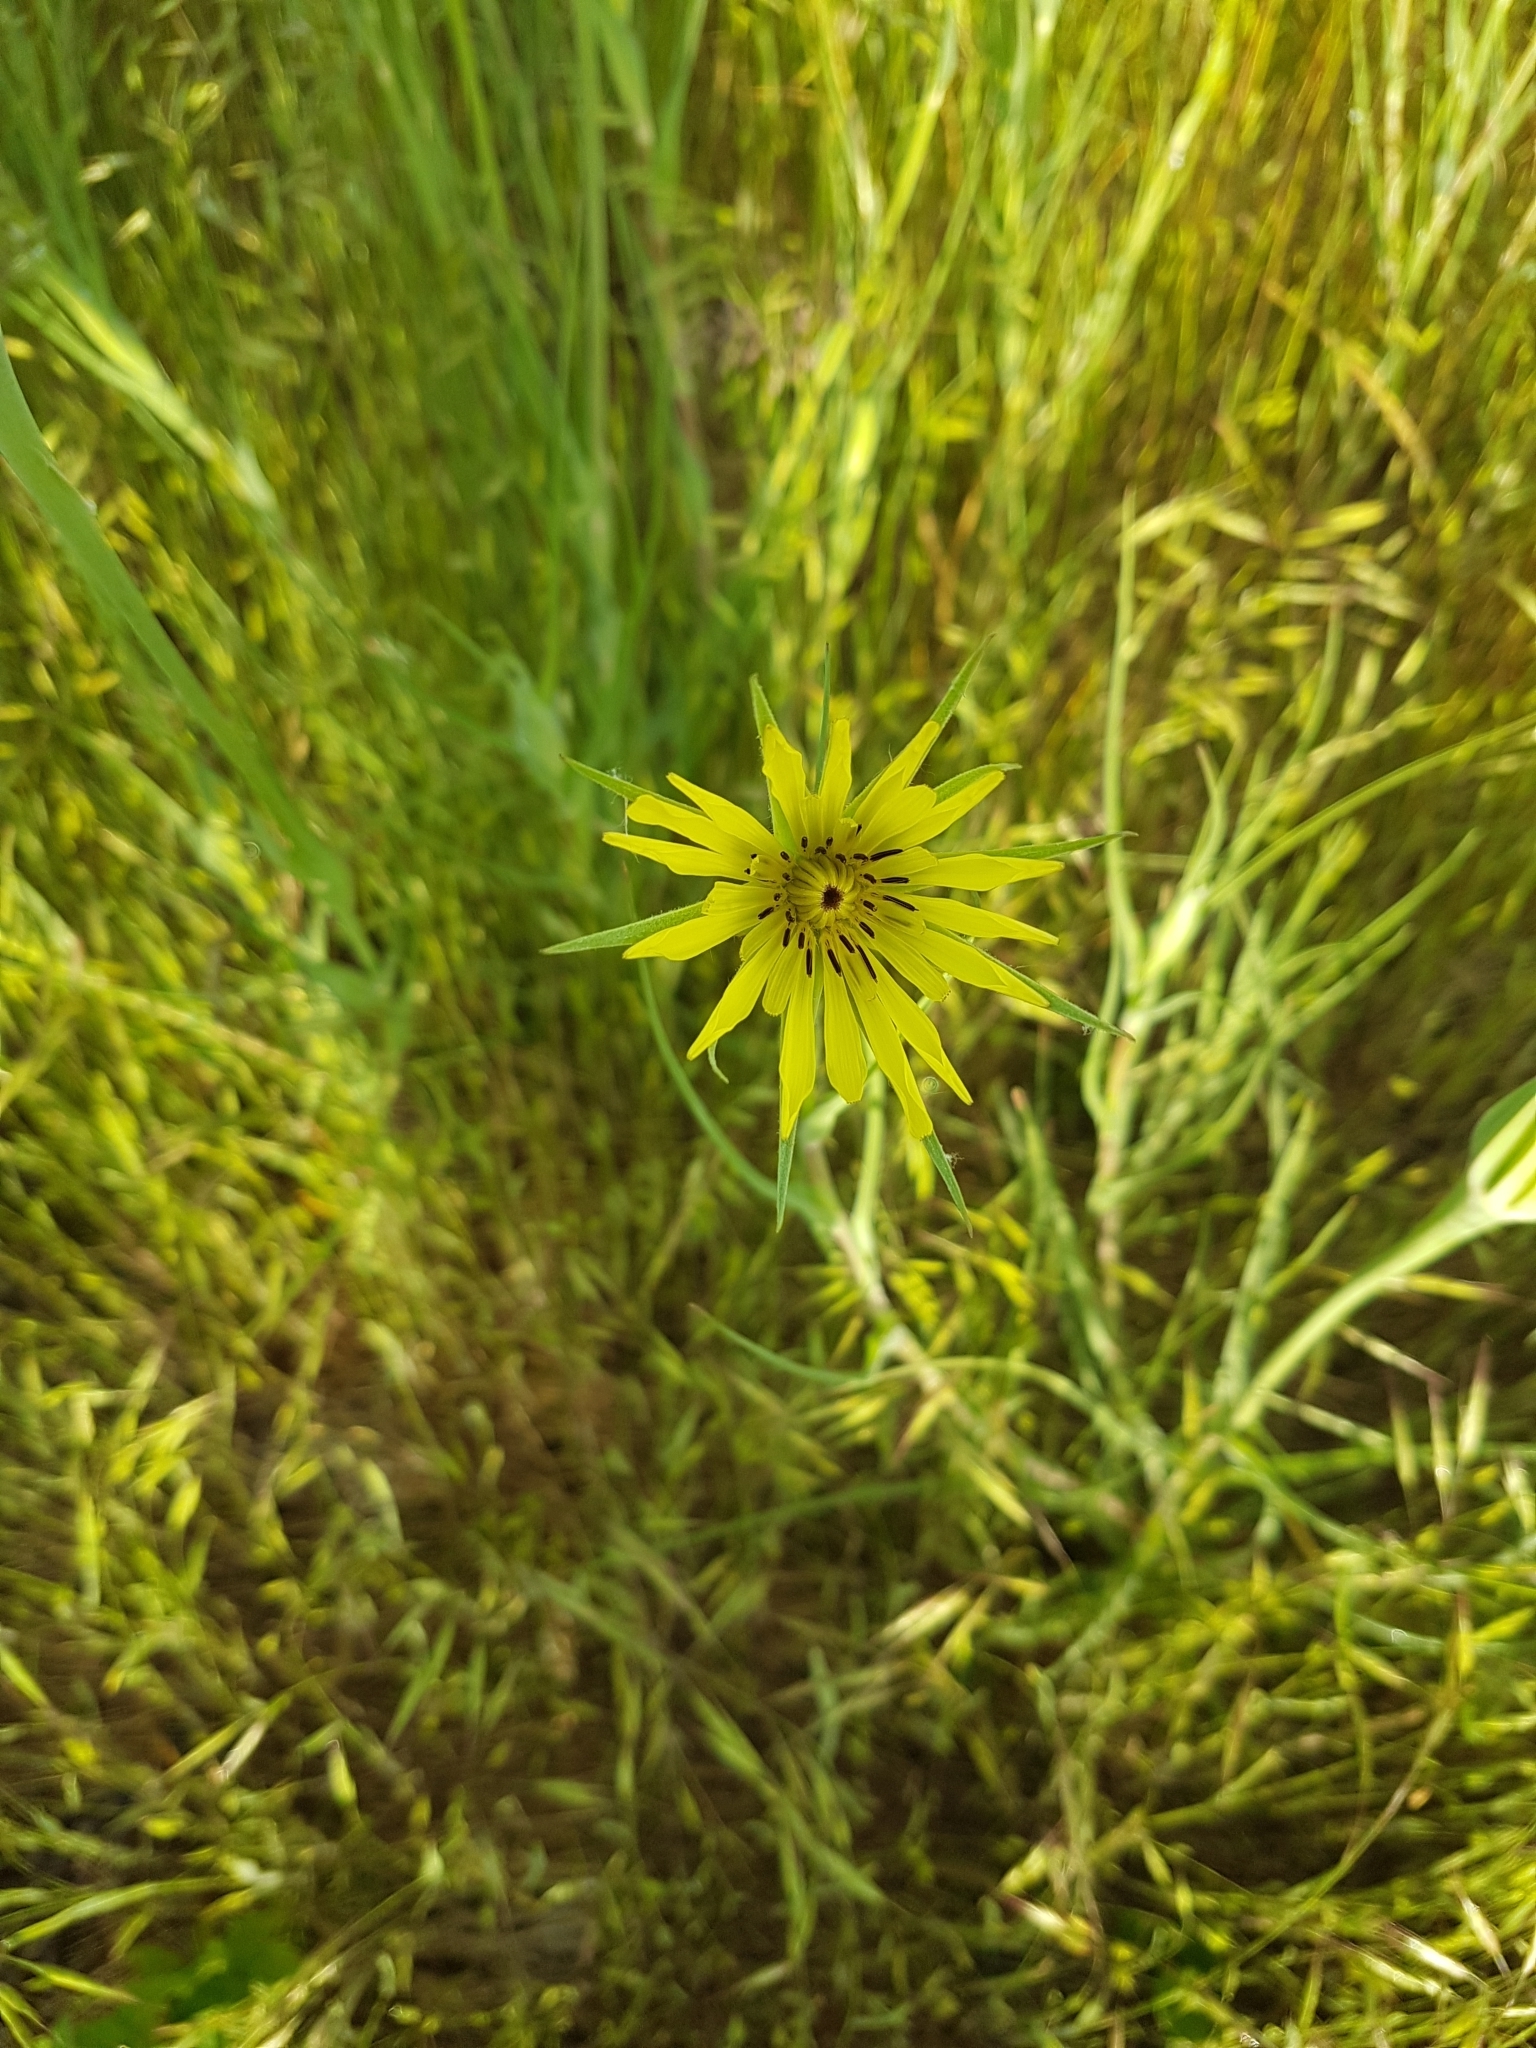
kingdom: Plantae
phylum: Tracheophyta
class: Magnoliopsida
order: Asterales
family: Asteraceae
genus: Tragopogon
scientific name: Tragopogon dubius
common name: Yellow salsify
